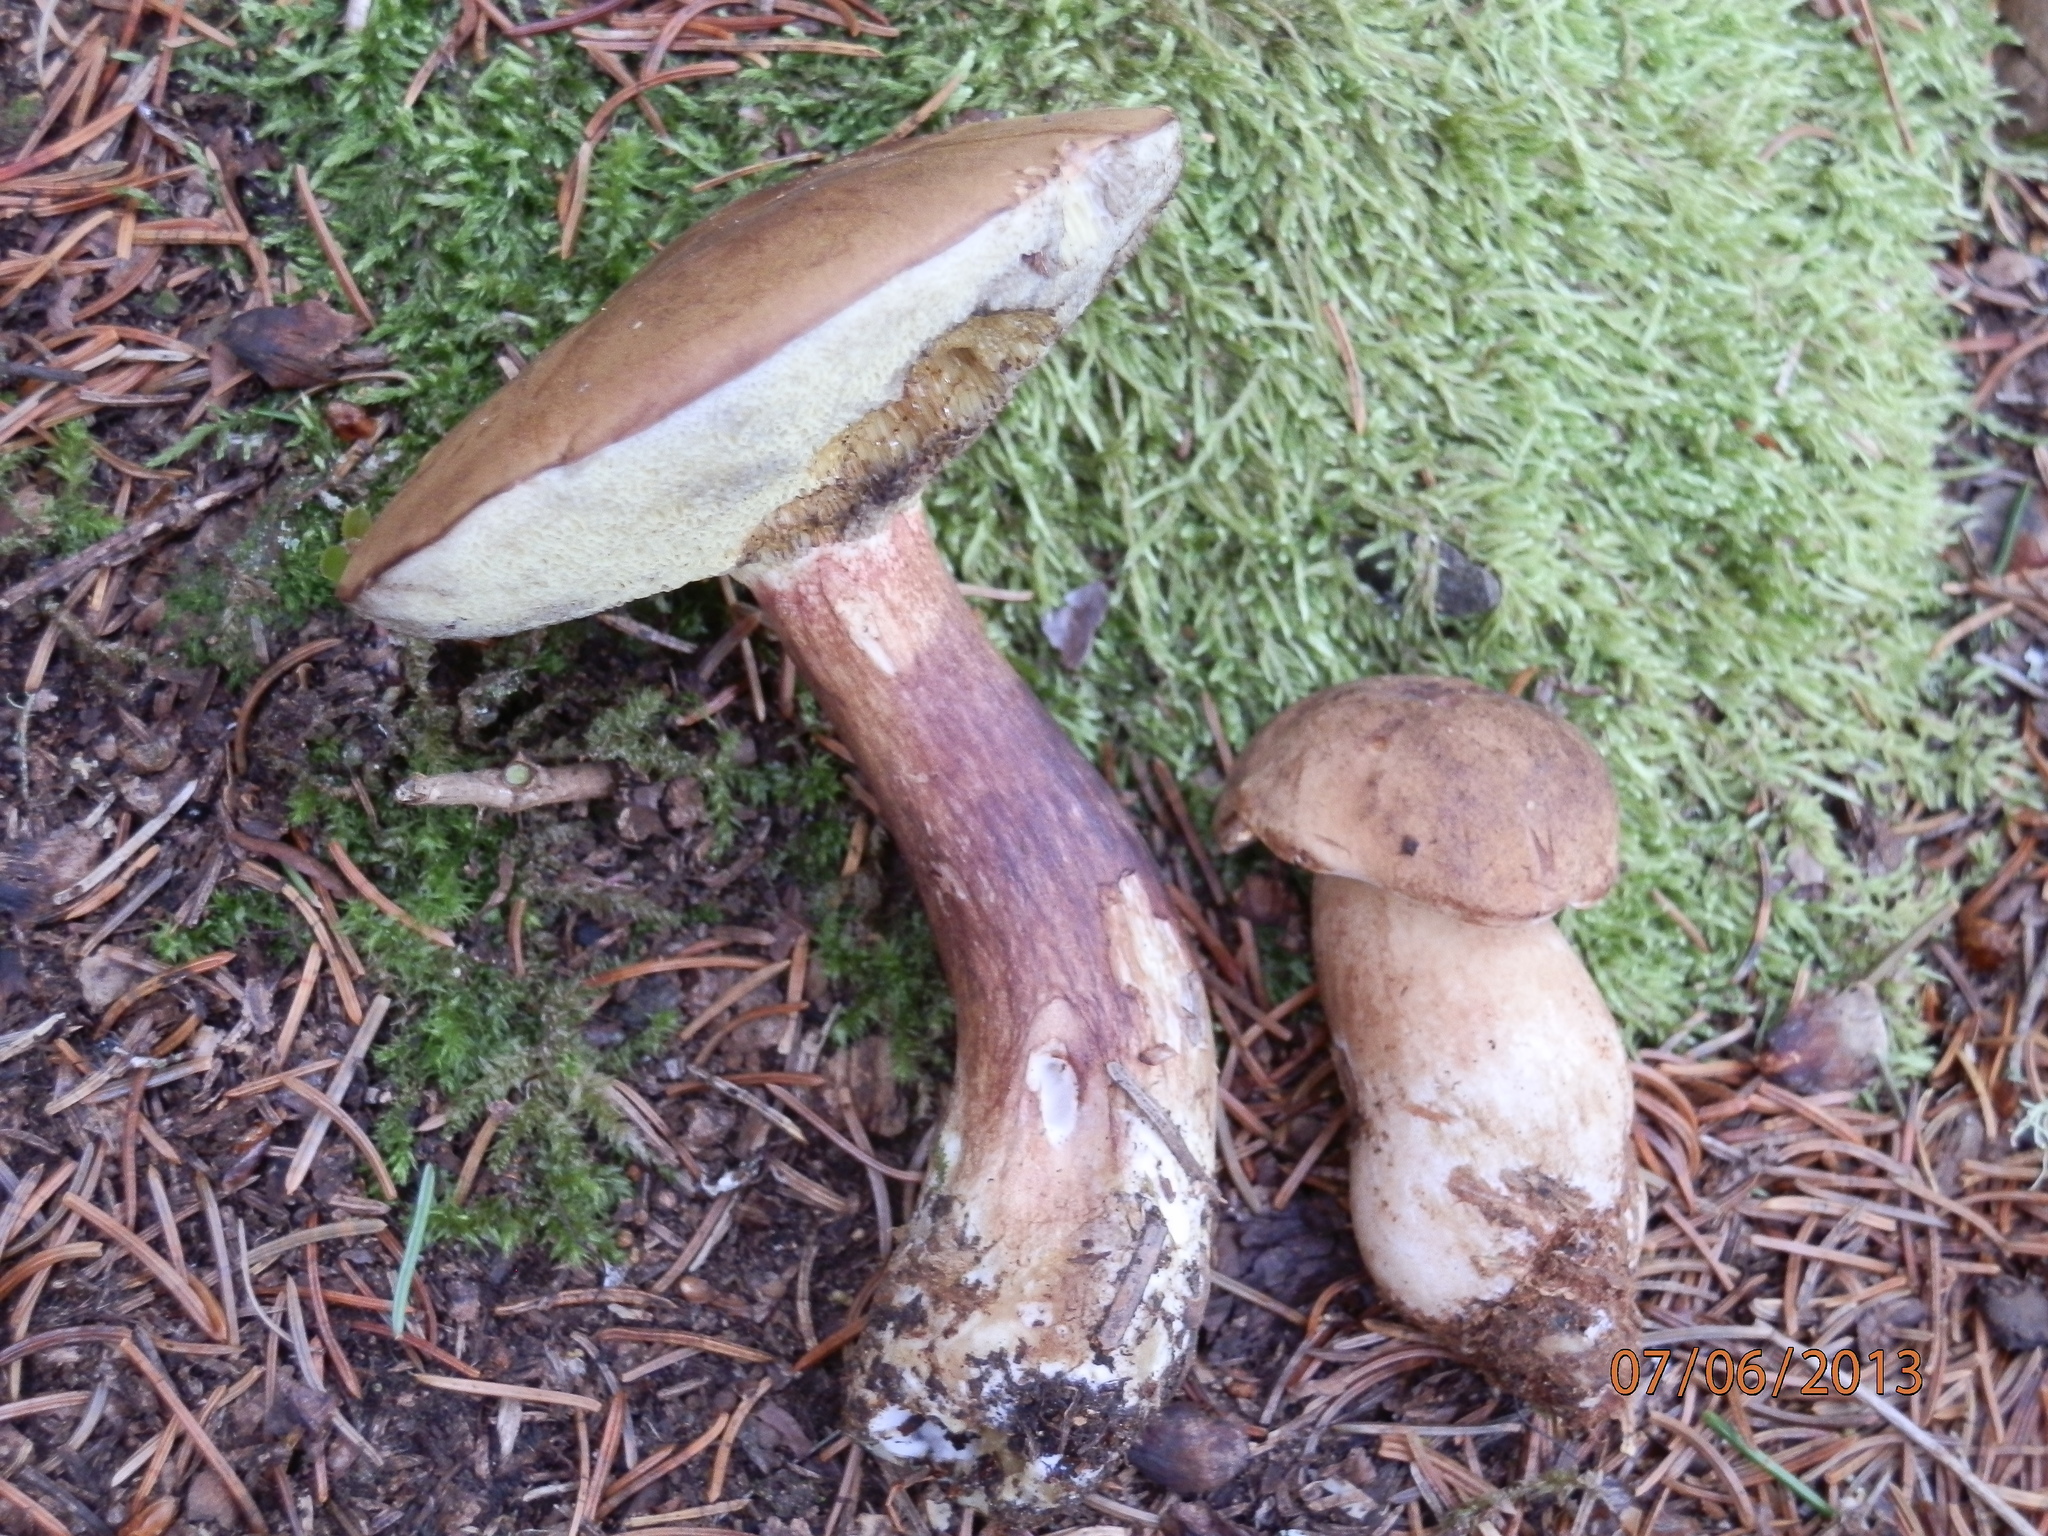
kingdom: Fungi
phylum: Basidiomycota
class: Agaricomycetes
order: Boletales
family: Boletaceae
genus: Imleria
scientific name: Imleria badia
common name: Bay bolete
